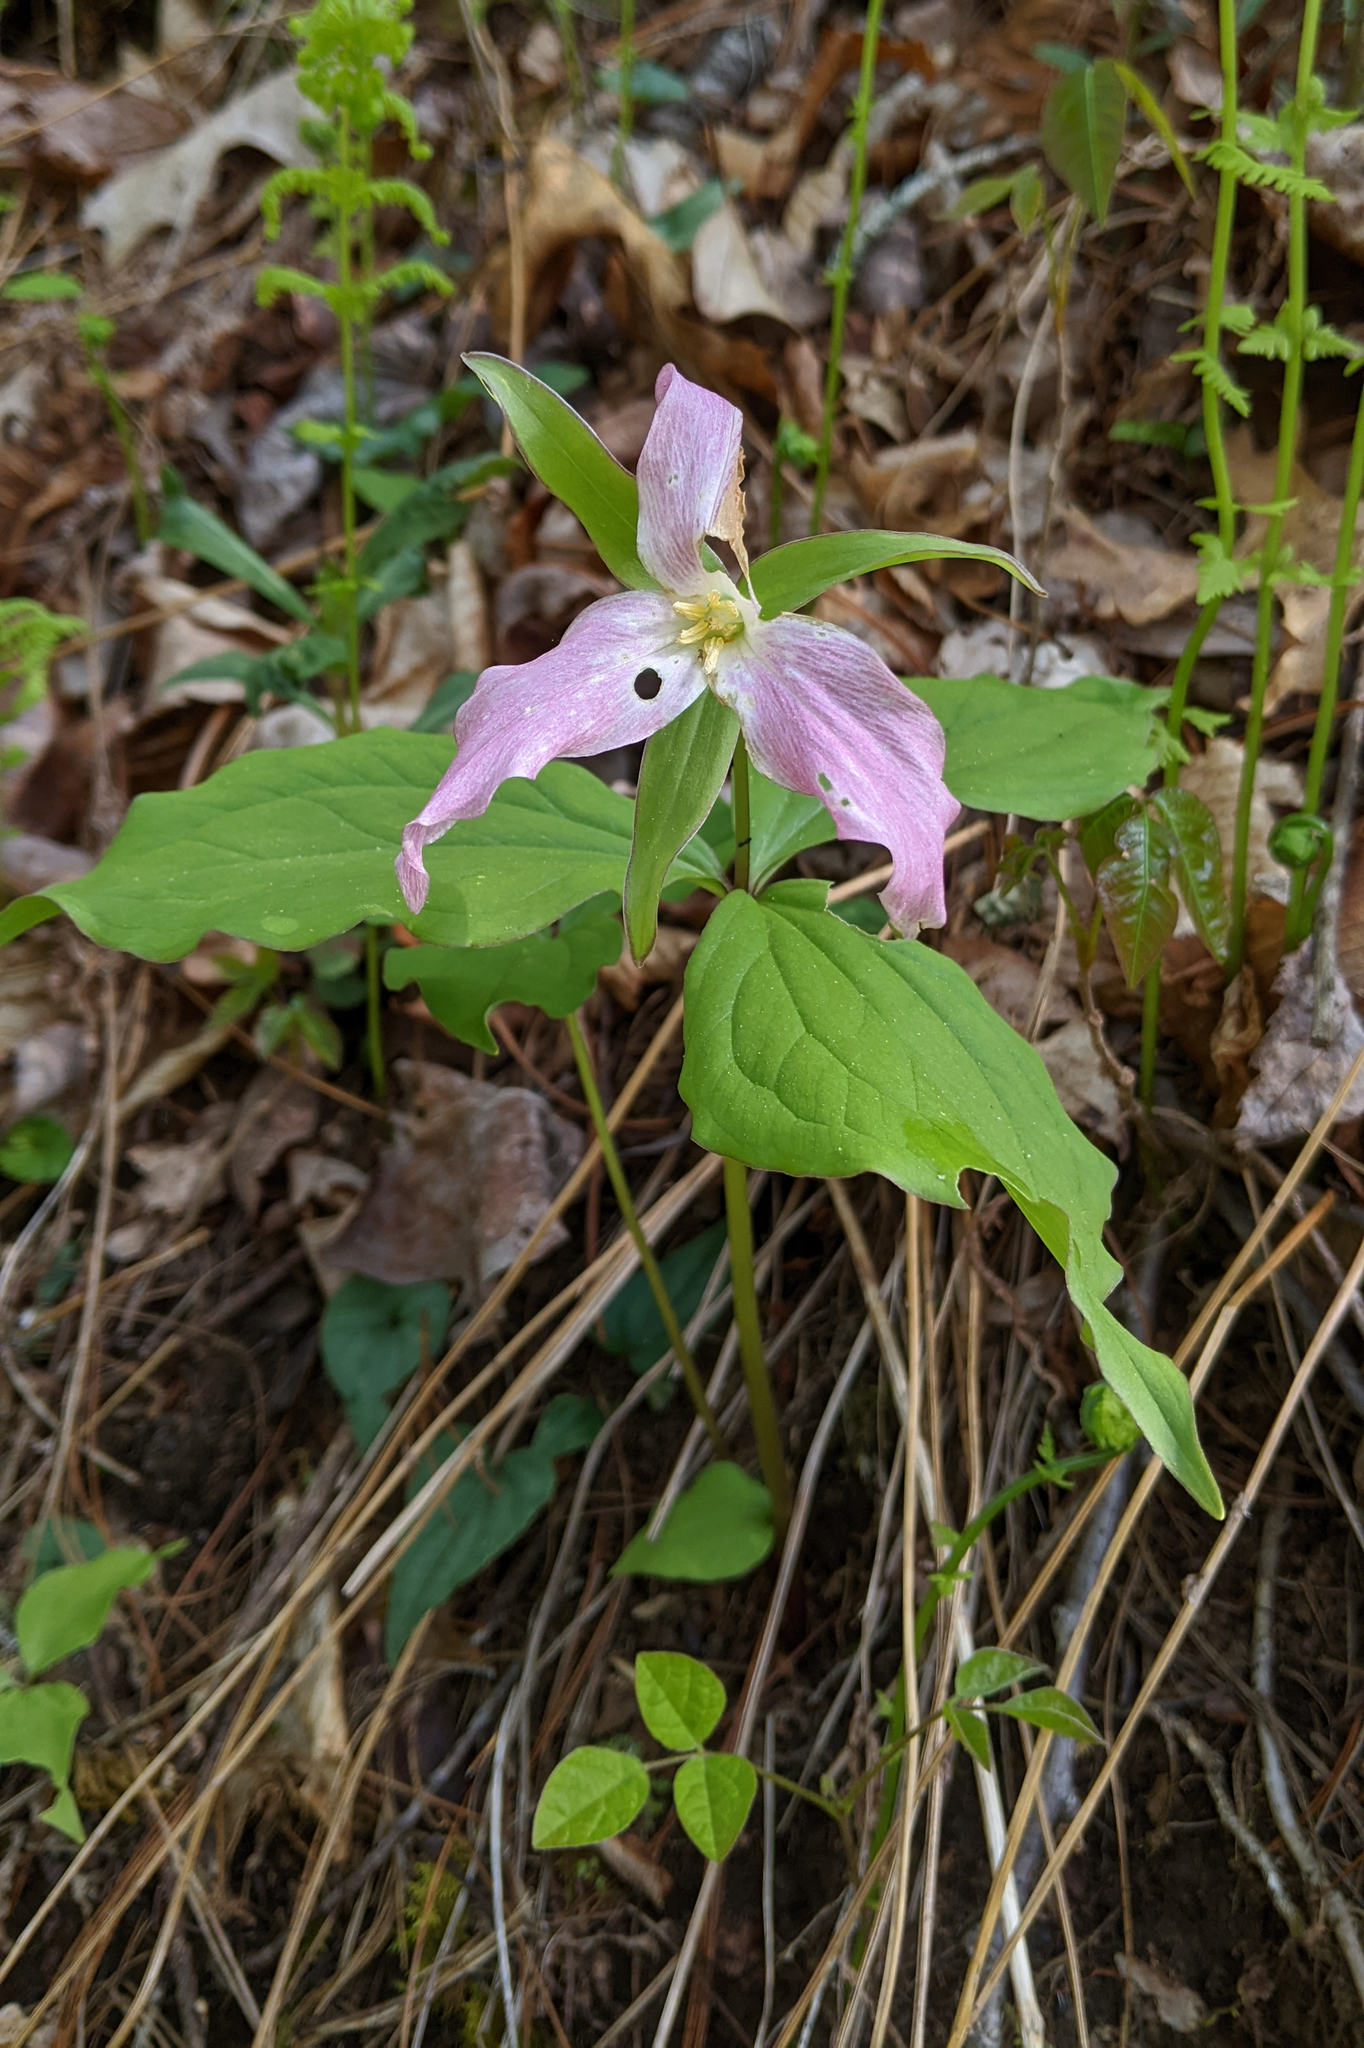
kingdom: Plantae
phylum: Tracheophyta
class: Liliopsida
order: Liliales
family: Melanthiaceae
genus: Trillium
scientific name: Trillium grandiflorum
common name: Great white trillium
